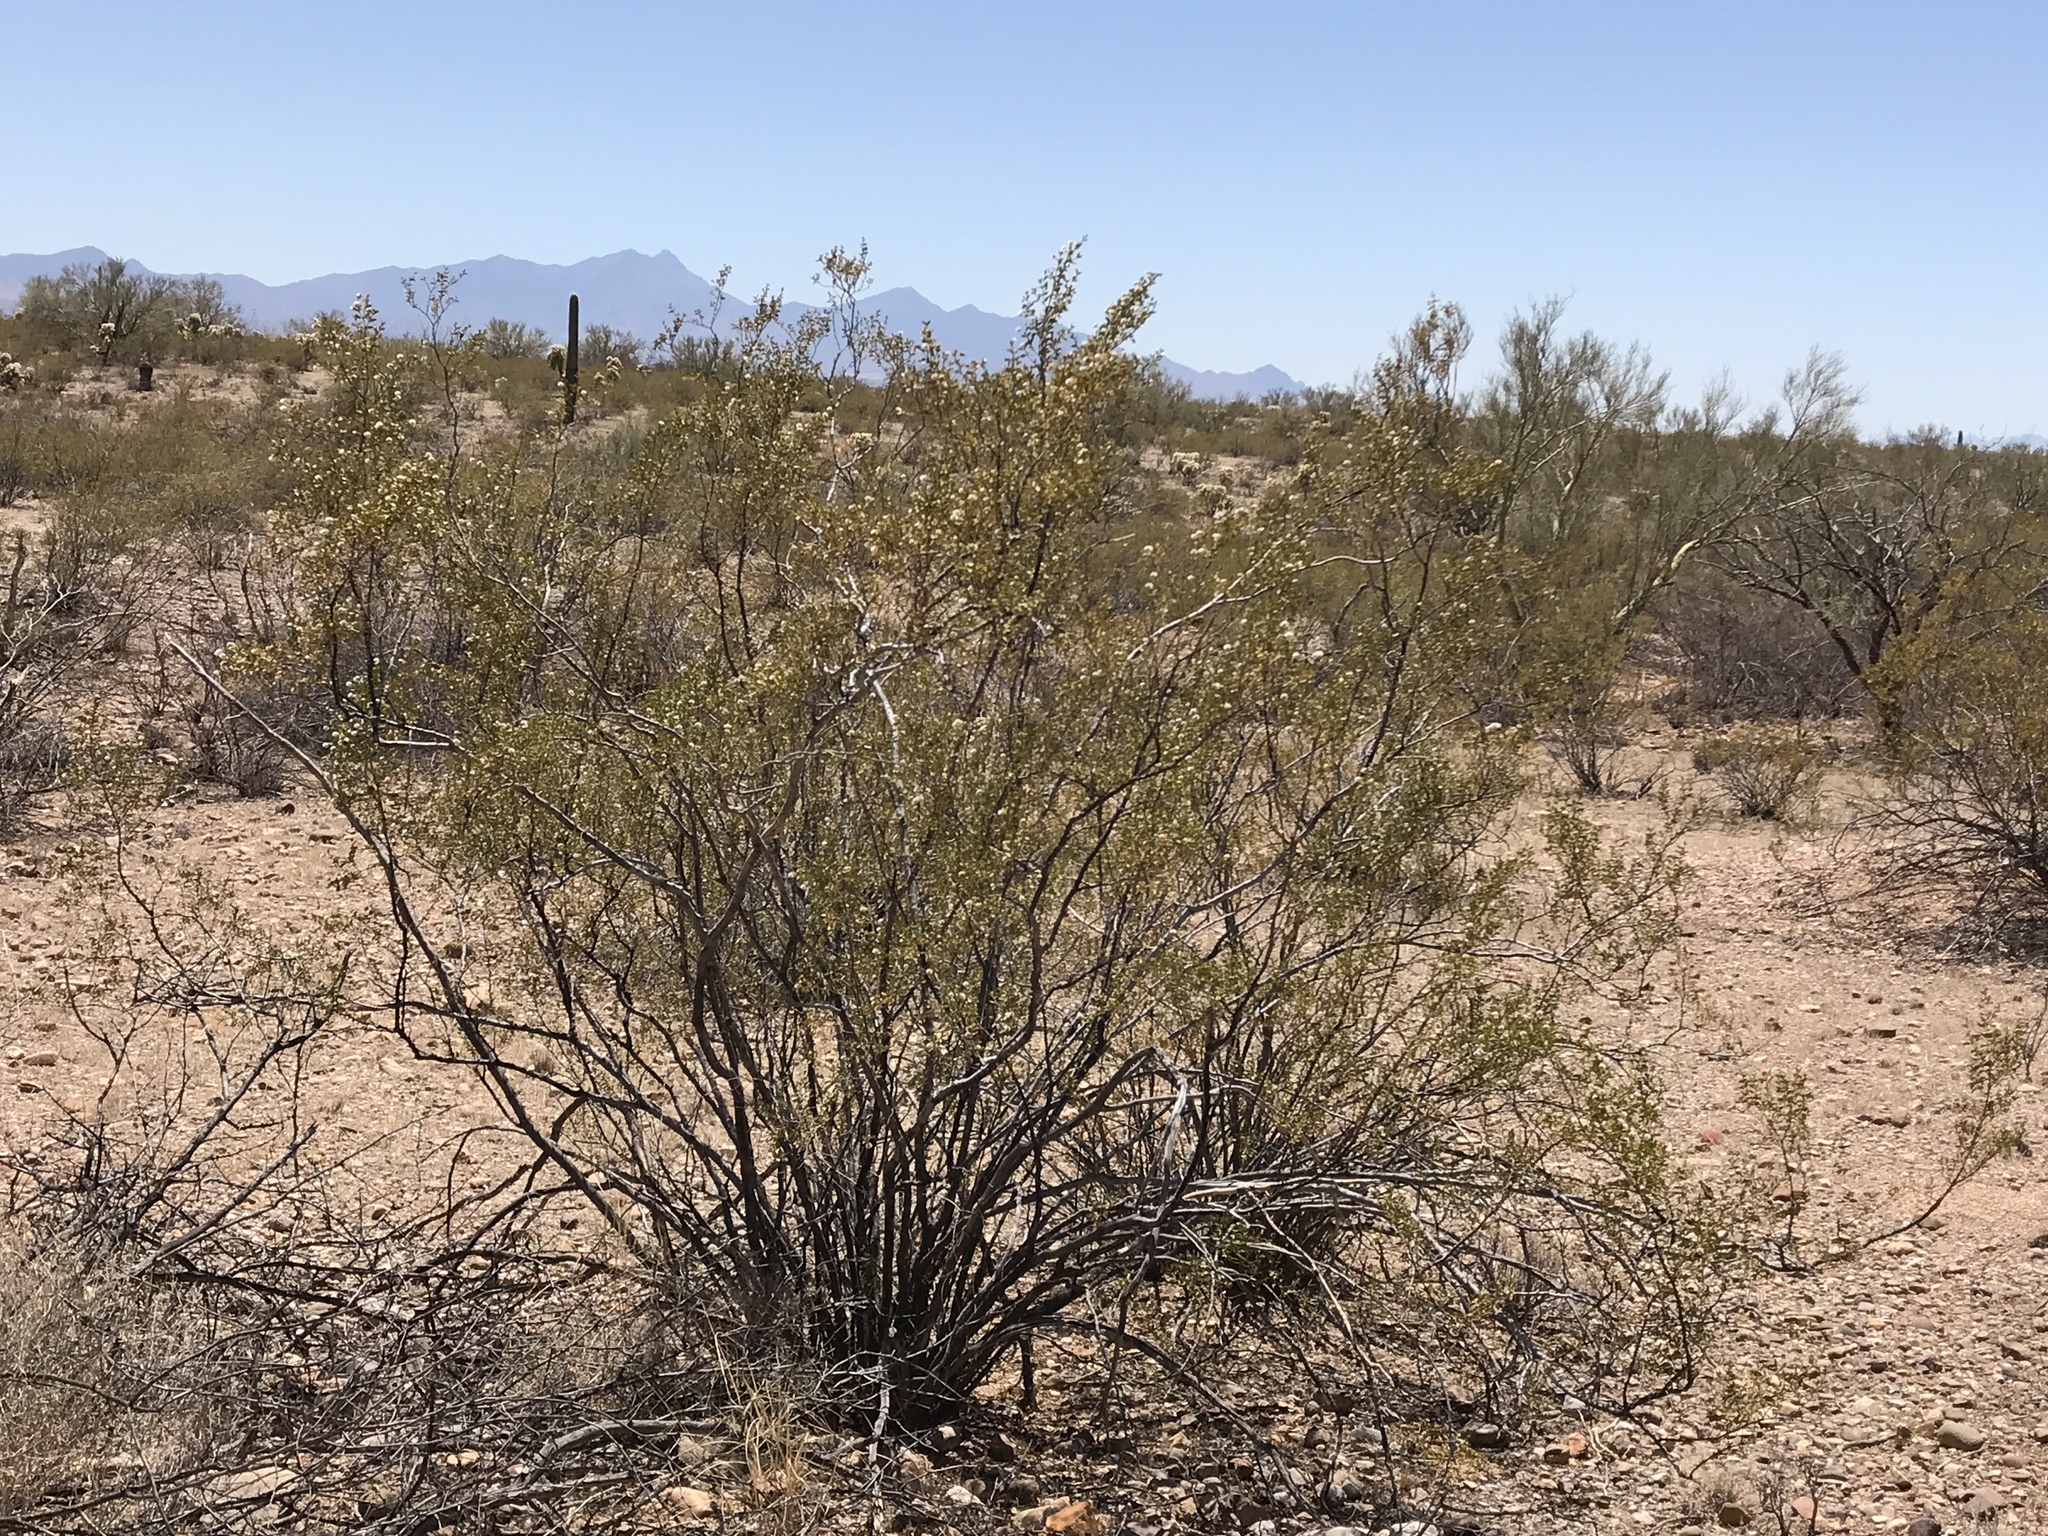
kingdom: Plantae
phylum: Tracheophyta
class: Magnoliopsida
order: Zygophyllales
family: Zygophyllaceae
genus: Larrea
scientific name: Larrea tridentata
